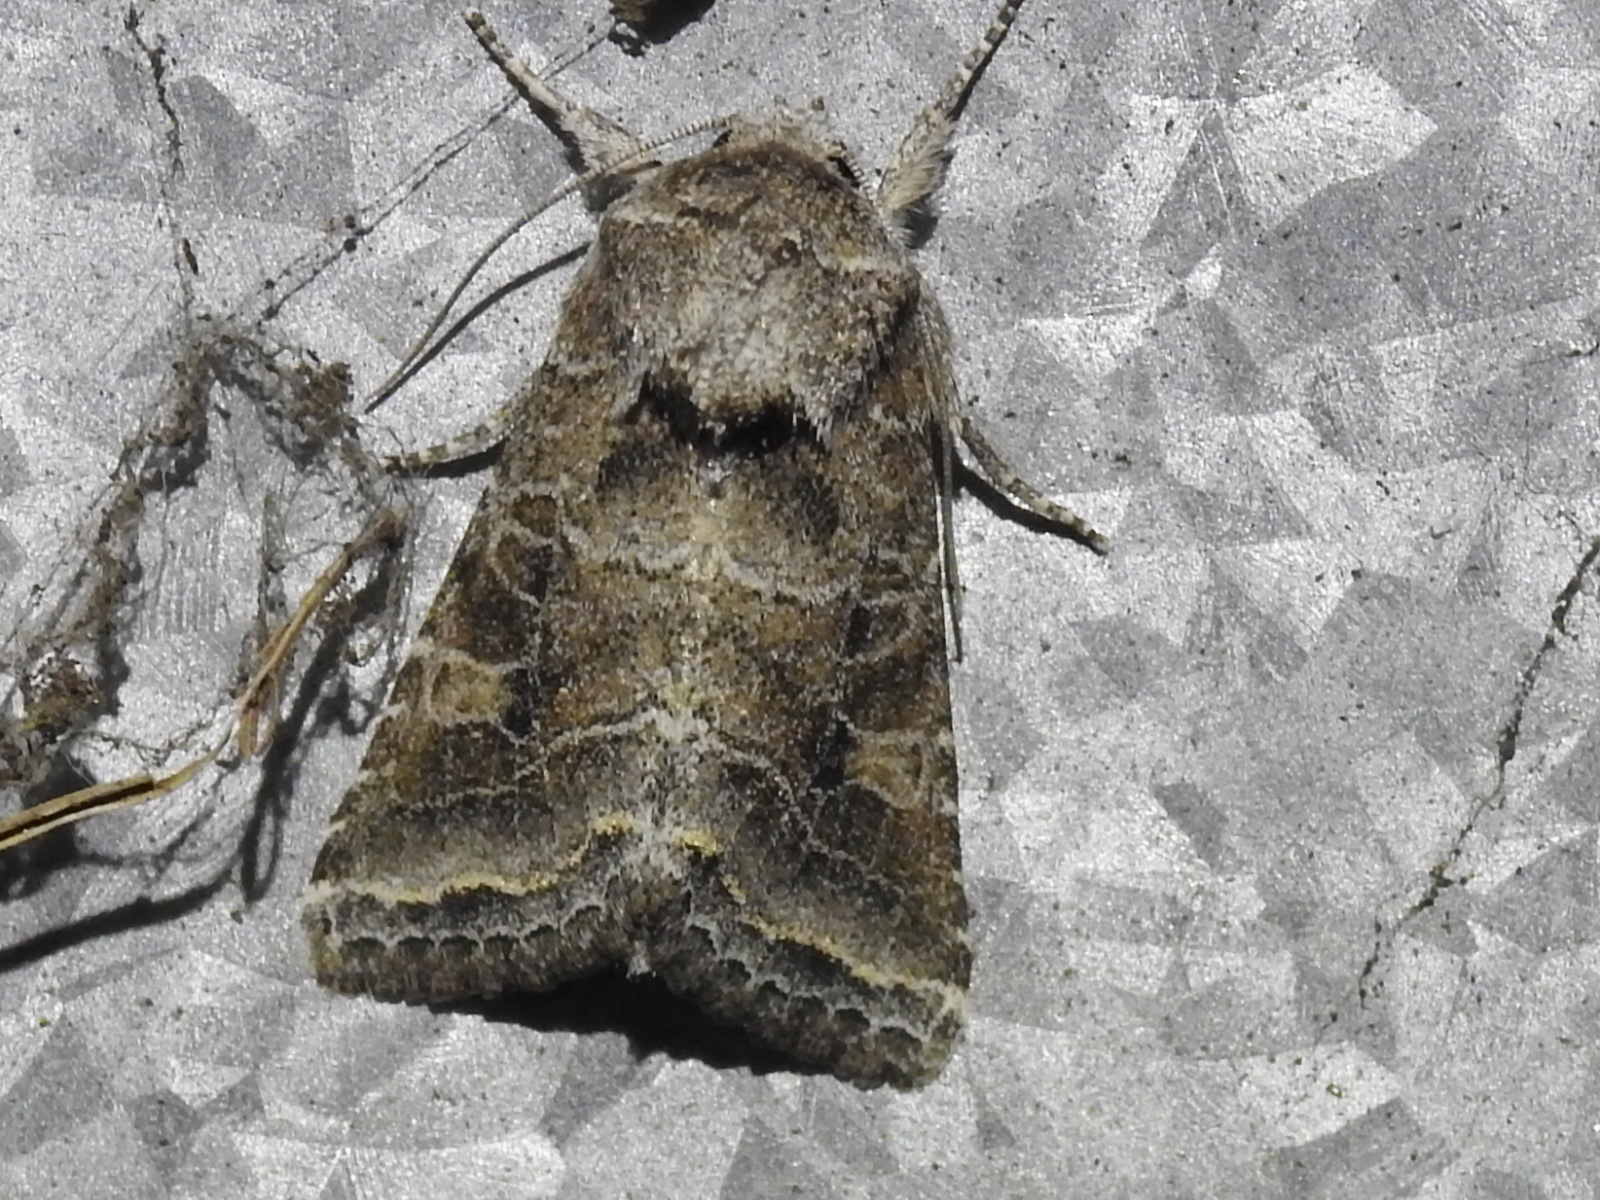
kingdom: Animalia
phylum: Arthropoda
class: Insecta
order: Lepidoptera
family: Noctuidae
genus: Lacinipolia
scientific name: Lacinipolia erecta
